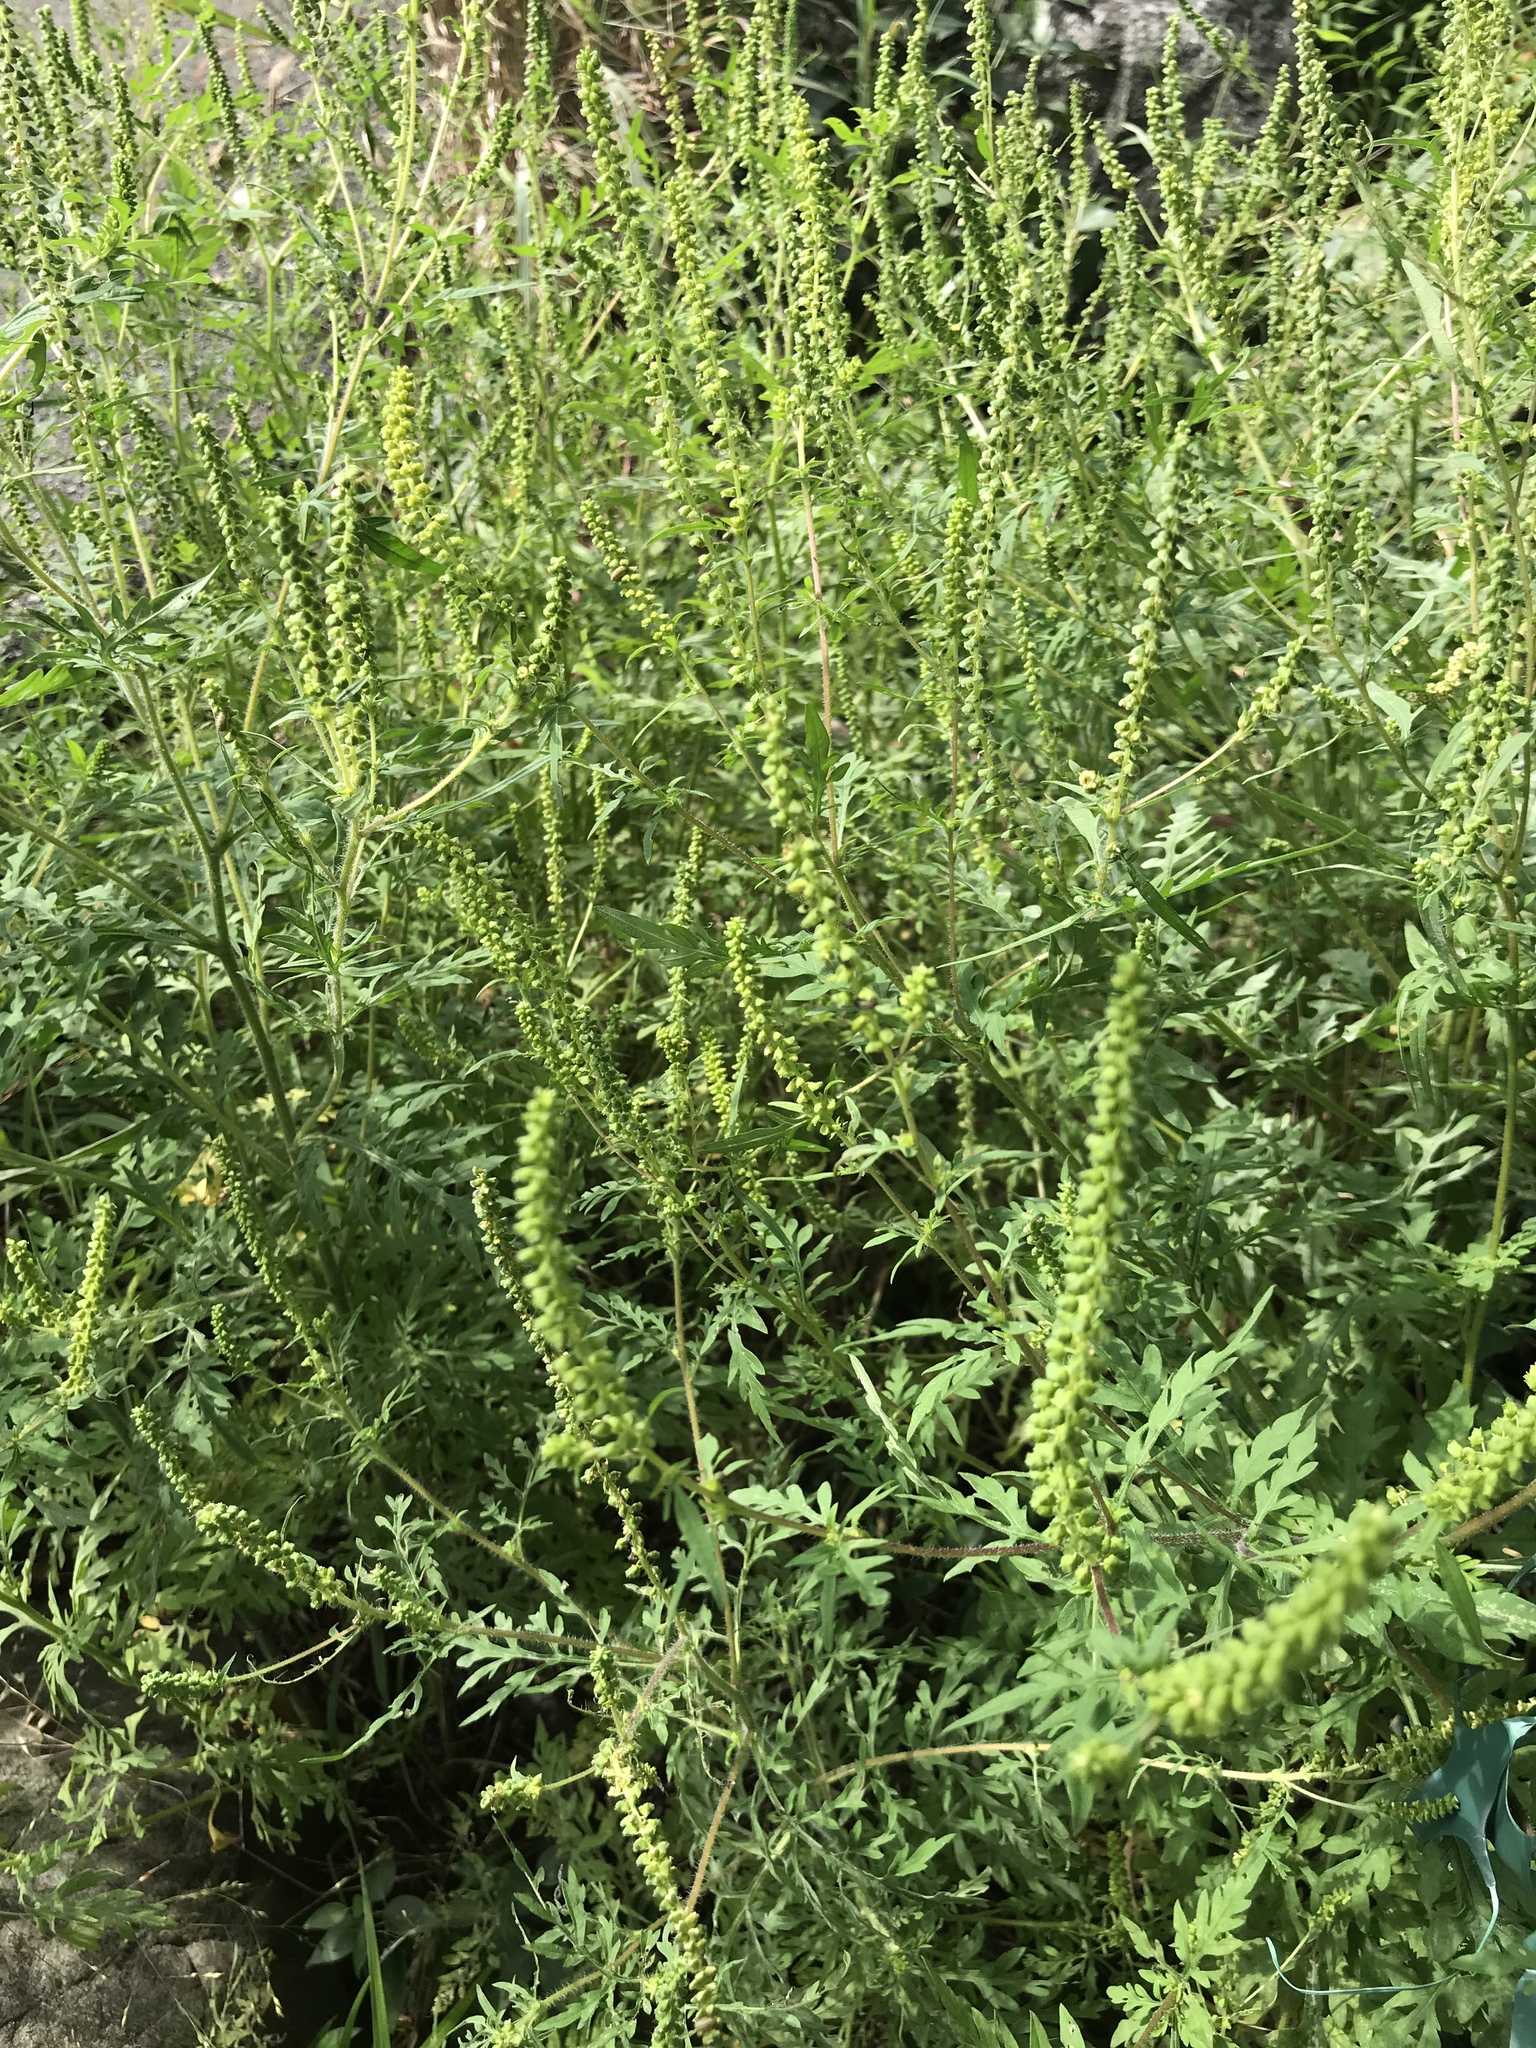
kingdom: Plantae
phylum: Tracheophyta
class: Magnoliopsida
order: Asterales
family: Asteraceae
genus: Ambrosia
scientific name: Ambrosia artemisiifolia
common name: Annual ragweed
